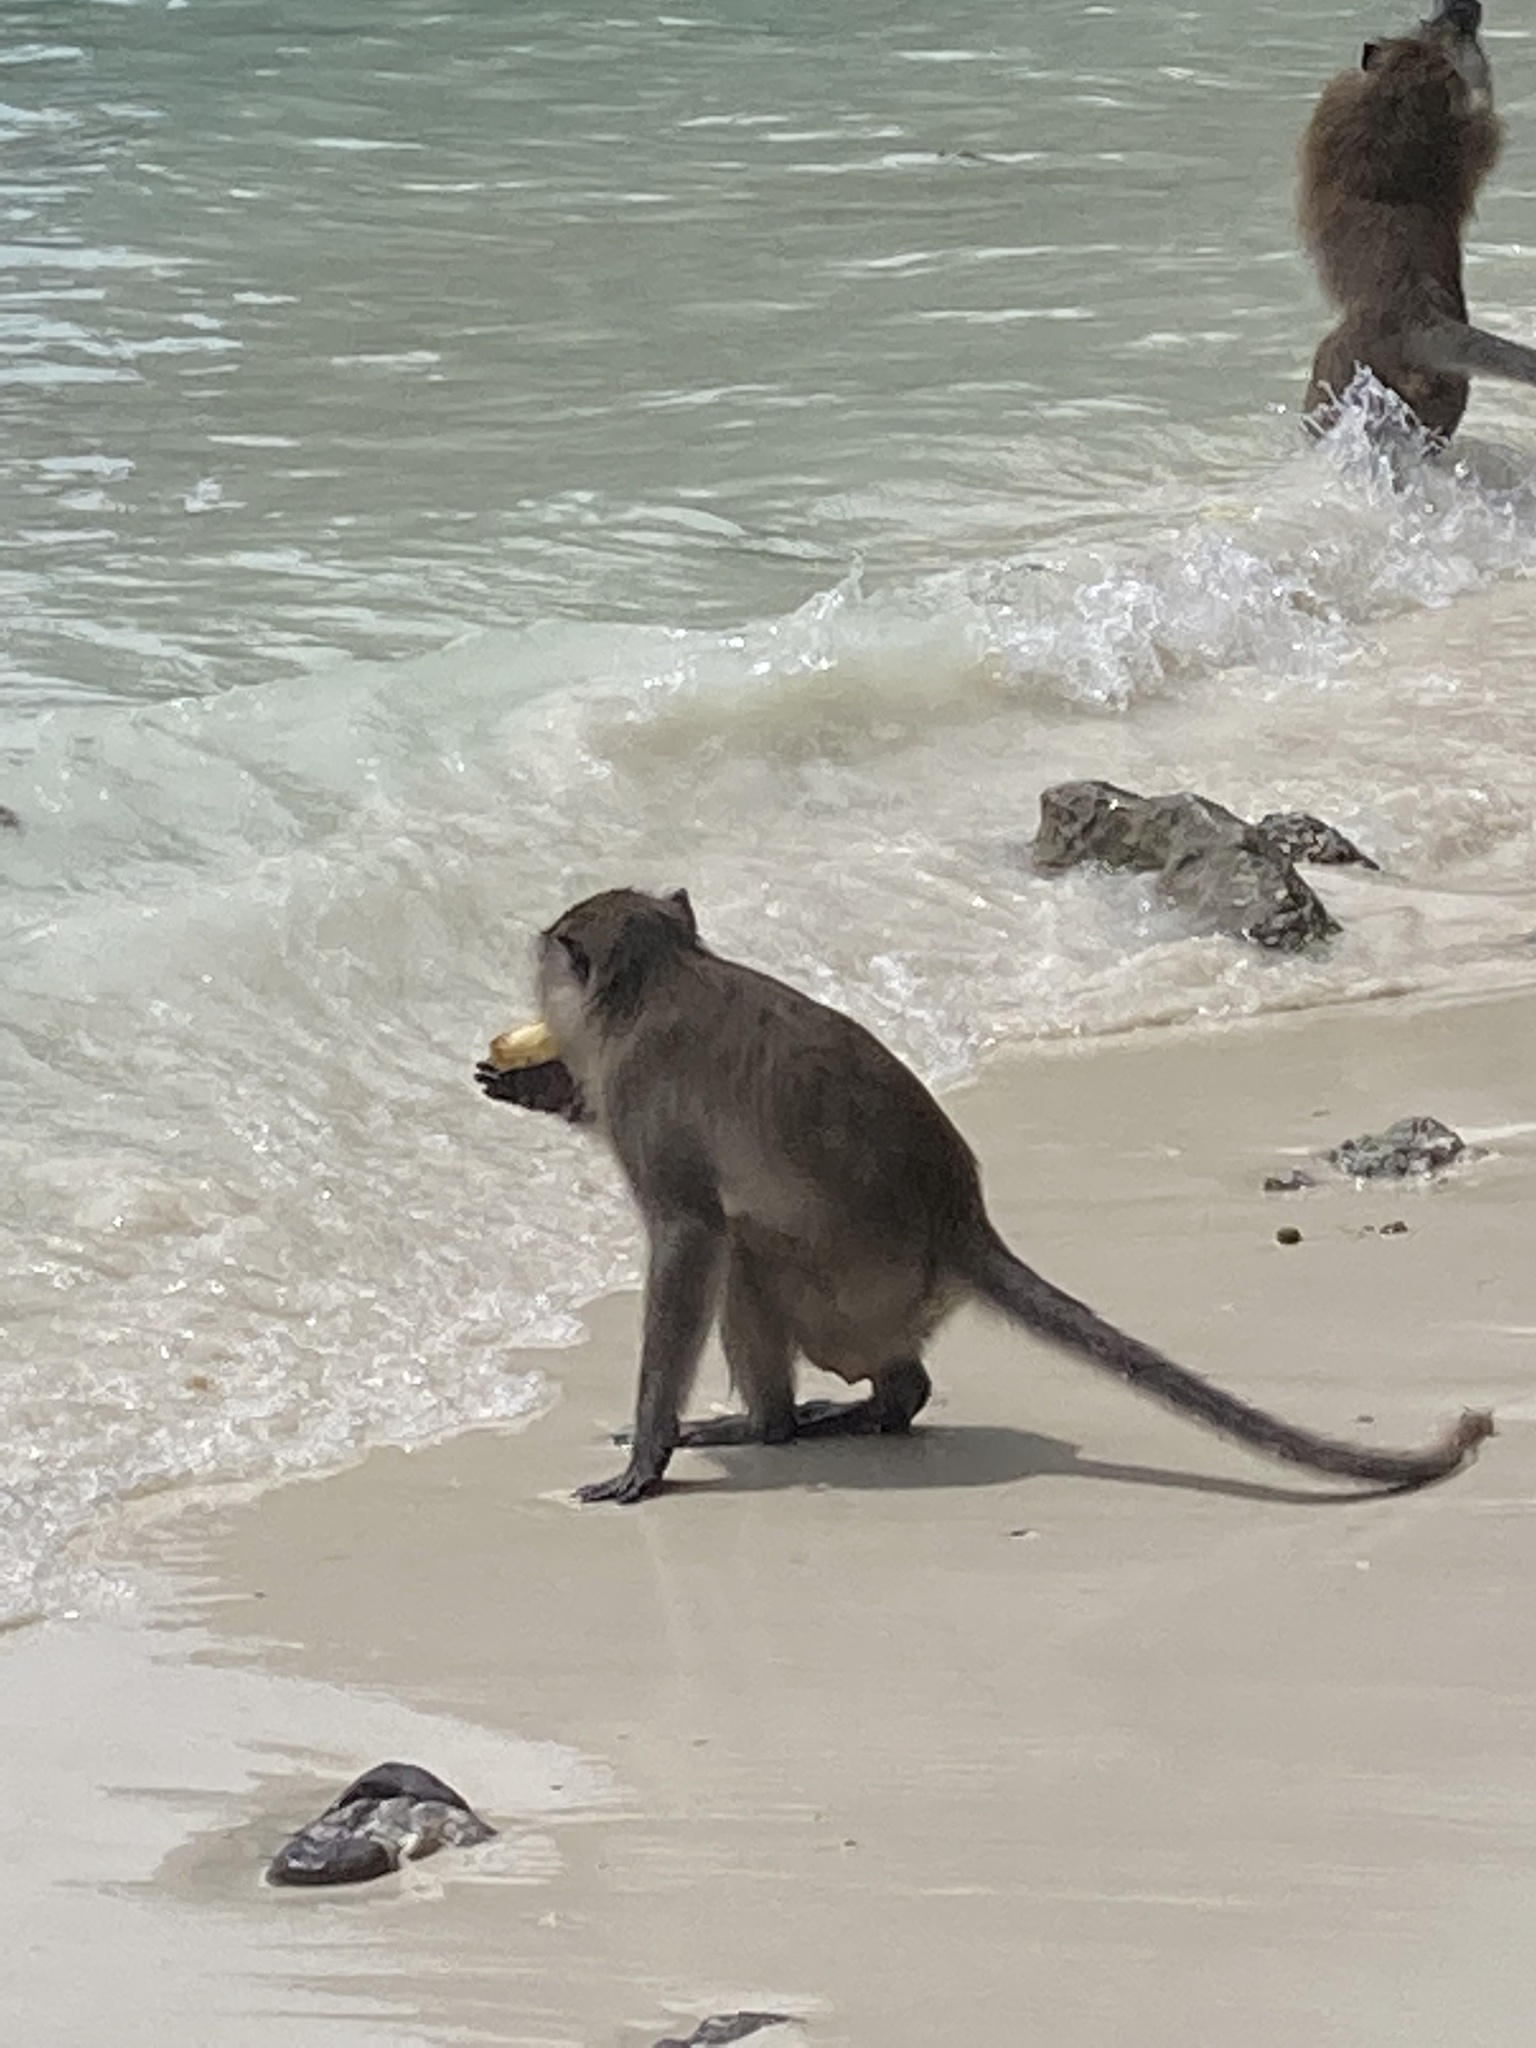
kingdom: Animalia
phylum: Chordata
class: Mammalia
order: Primates
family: Cercopithecidae
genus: Macaca
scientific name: Macaca fascicularis
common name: Crab-eating macaque
